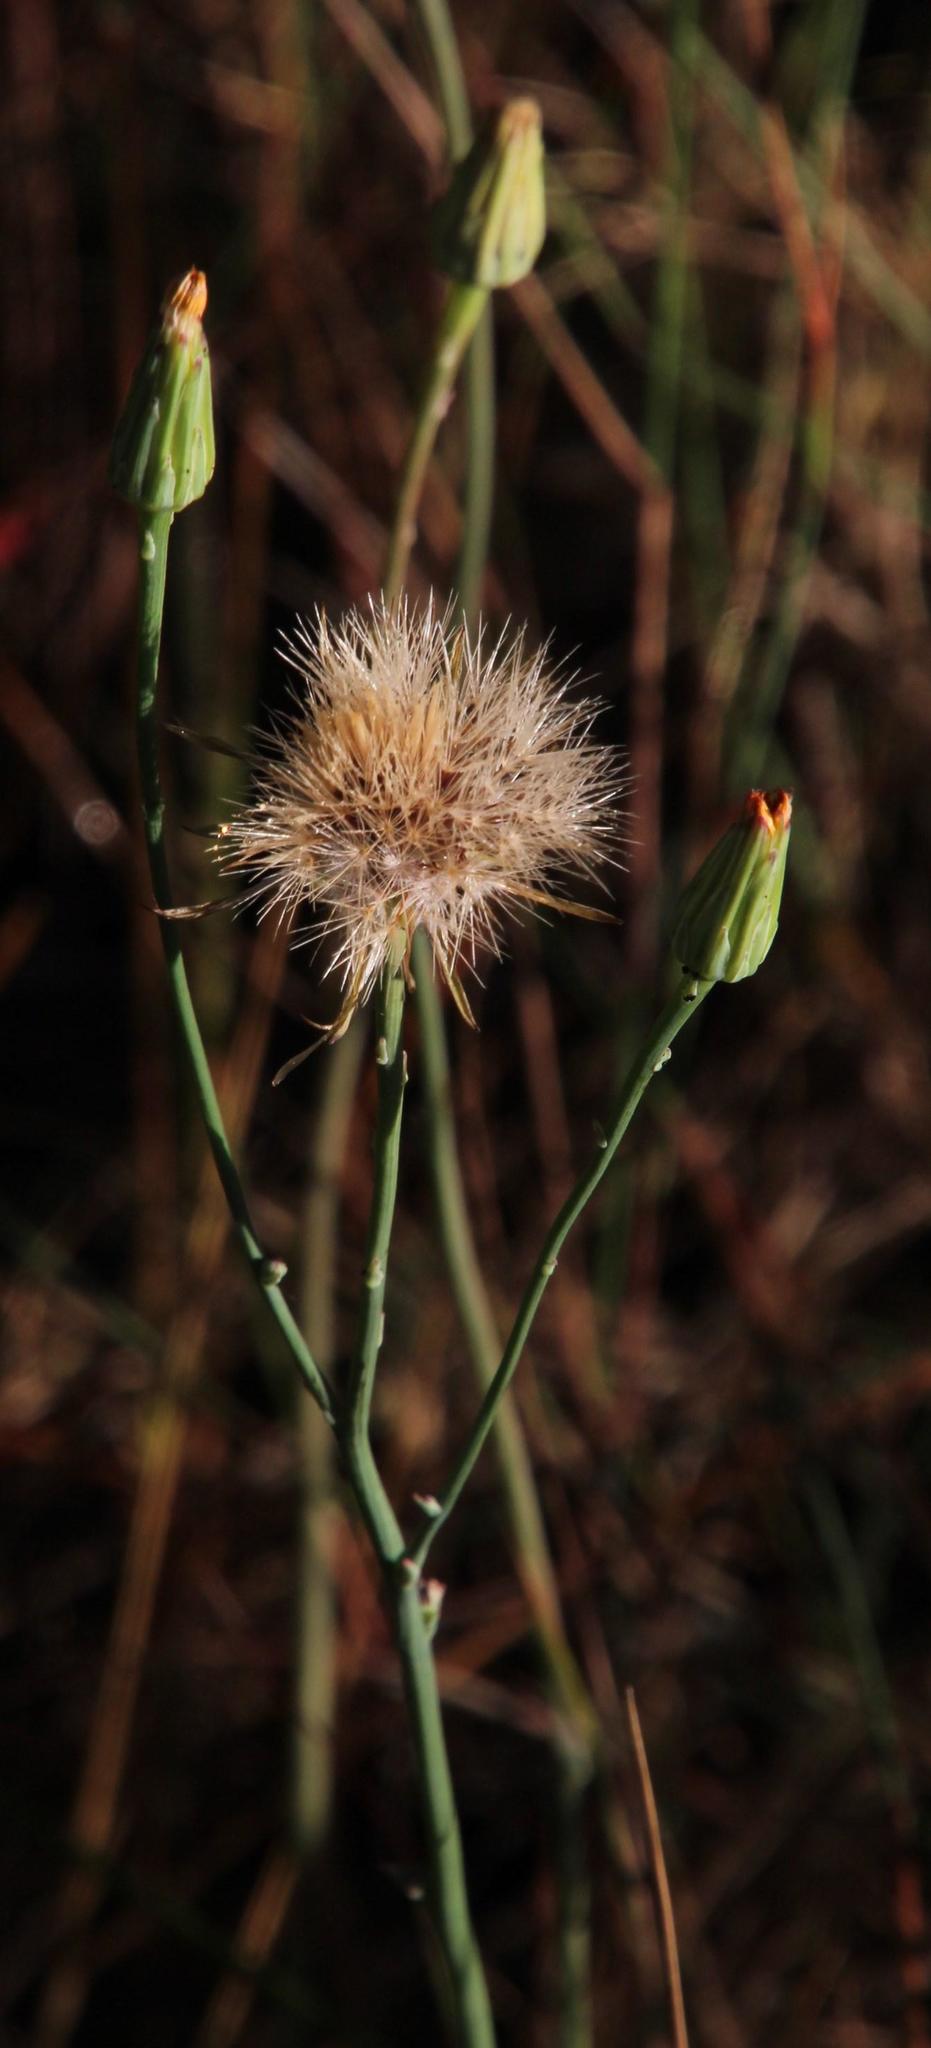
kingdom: Plantae
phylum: Tracheophyta
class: Magnoliopsida
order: Asterales
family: Asteraceae
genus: Hypochaeris
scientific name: Hypochaeris radicata
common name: Flatweed
